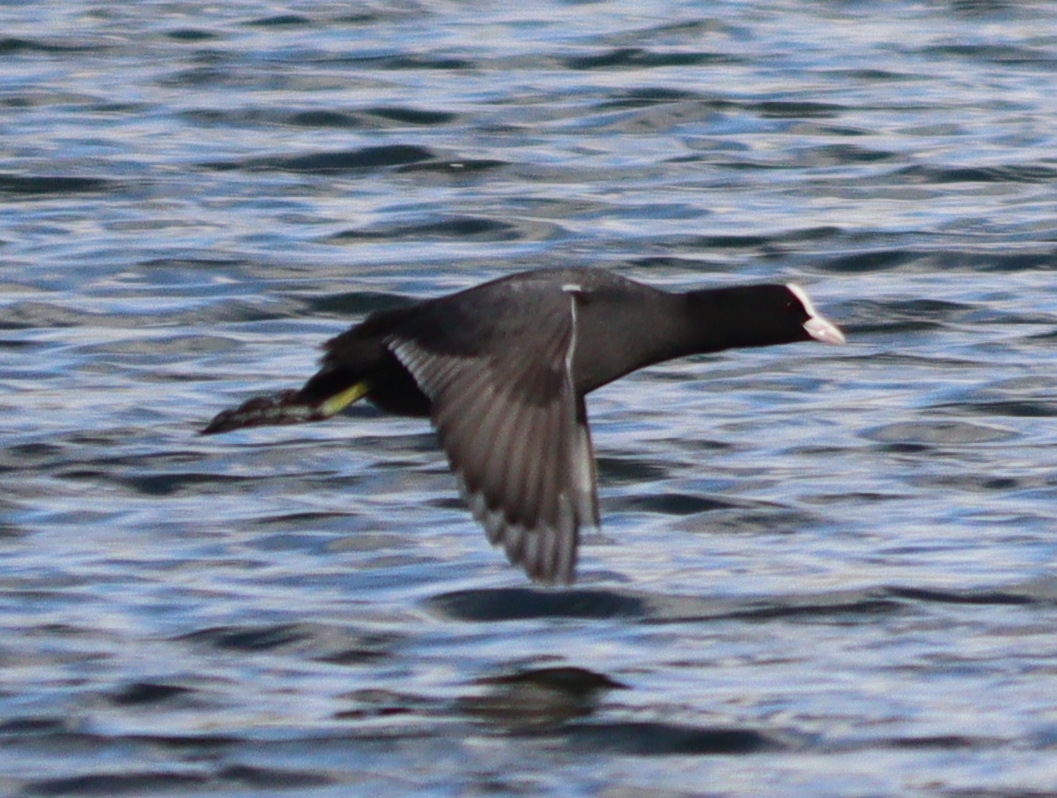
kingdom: Animalia
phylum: Chordata
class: Aves
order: Gruiformes
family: Rallidae
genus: Fulica
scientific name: Fulica atra
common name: Eurasian coot
